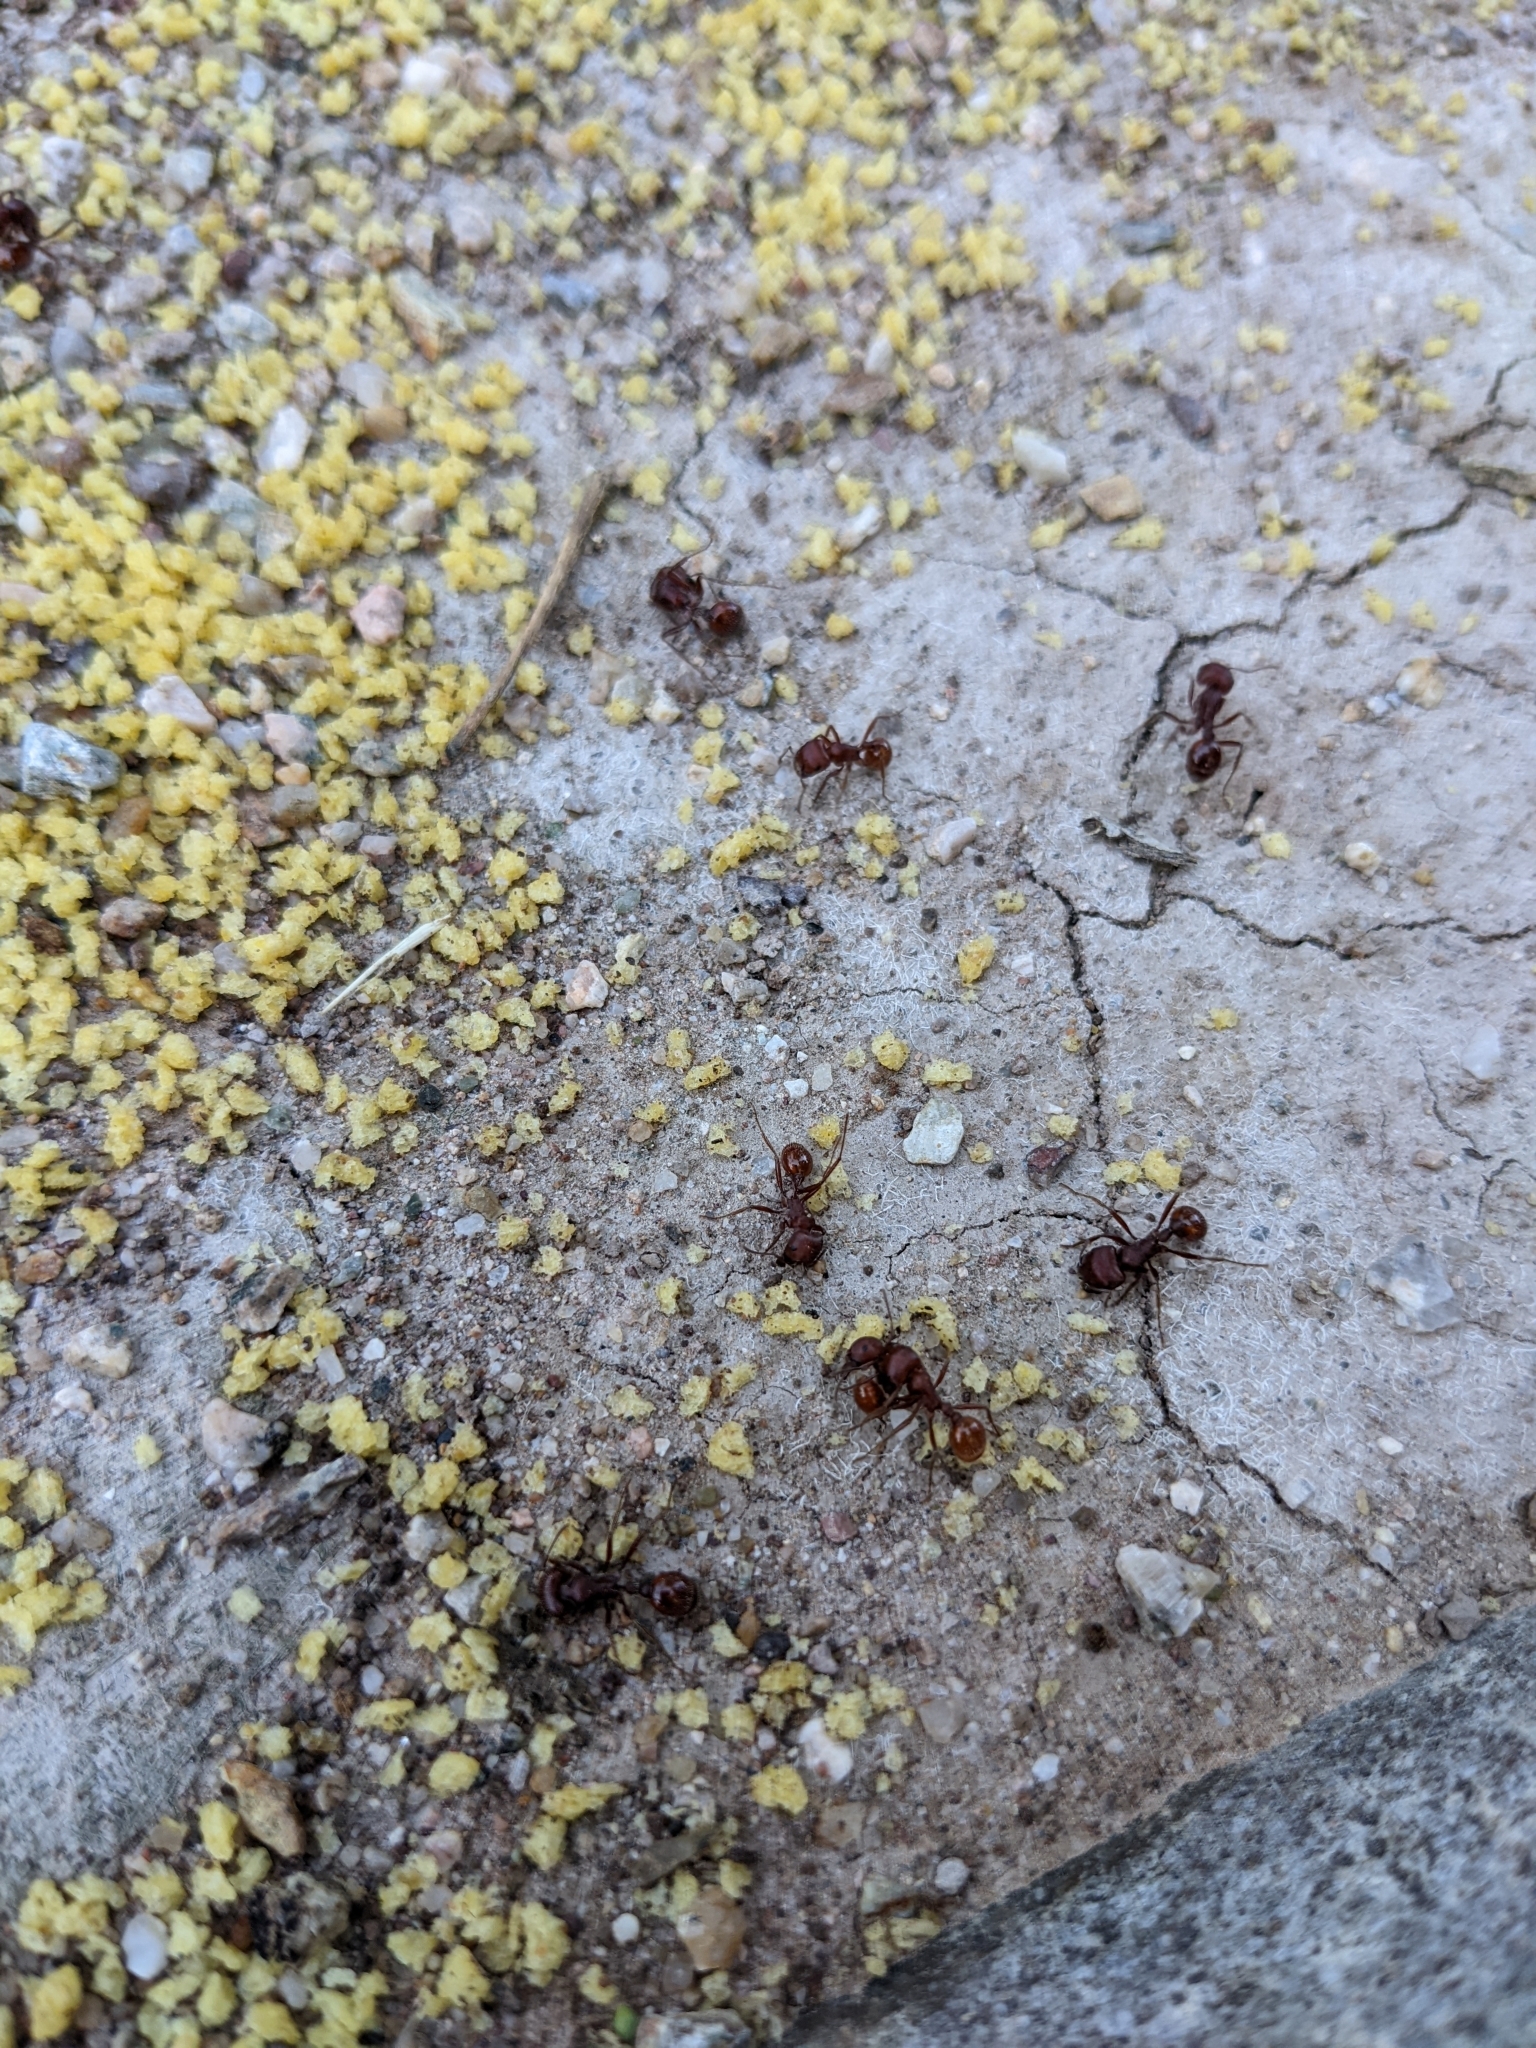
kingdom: Animalia
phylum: Arthropoda
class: Insecta
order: Hymenoptera
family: Formicidae
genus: Pogonomyrmex
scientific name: Pogonomyrmex barbatus
